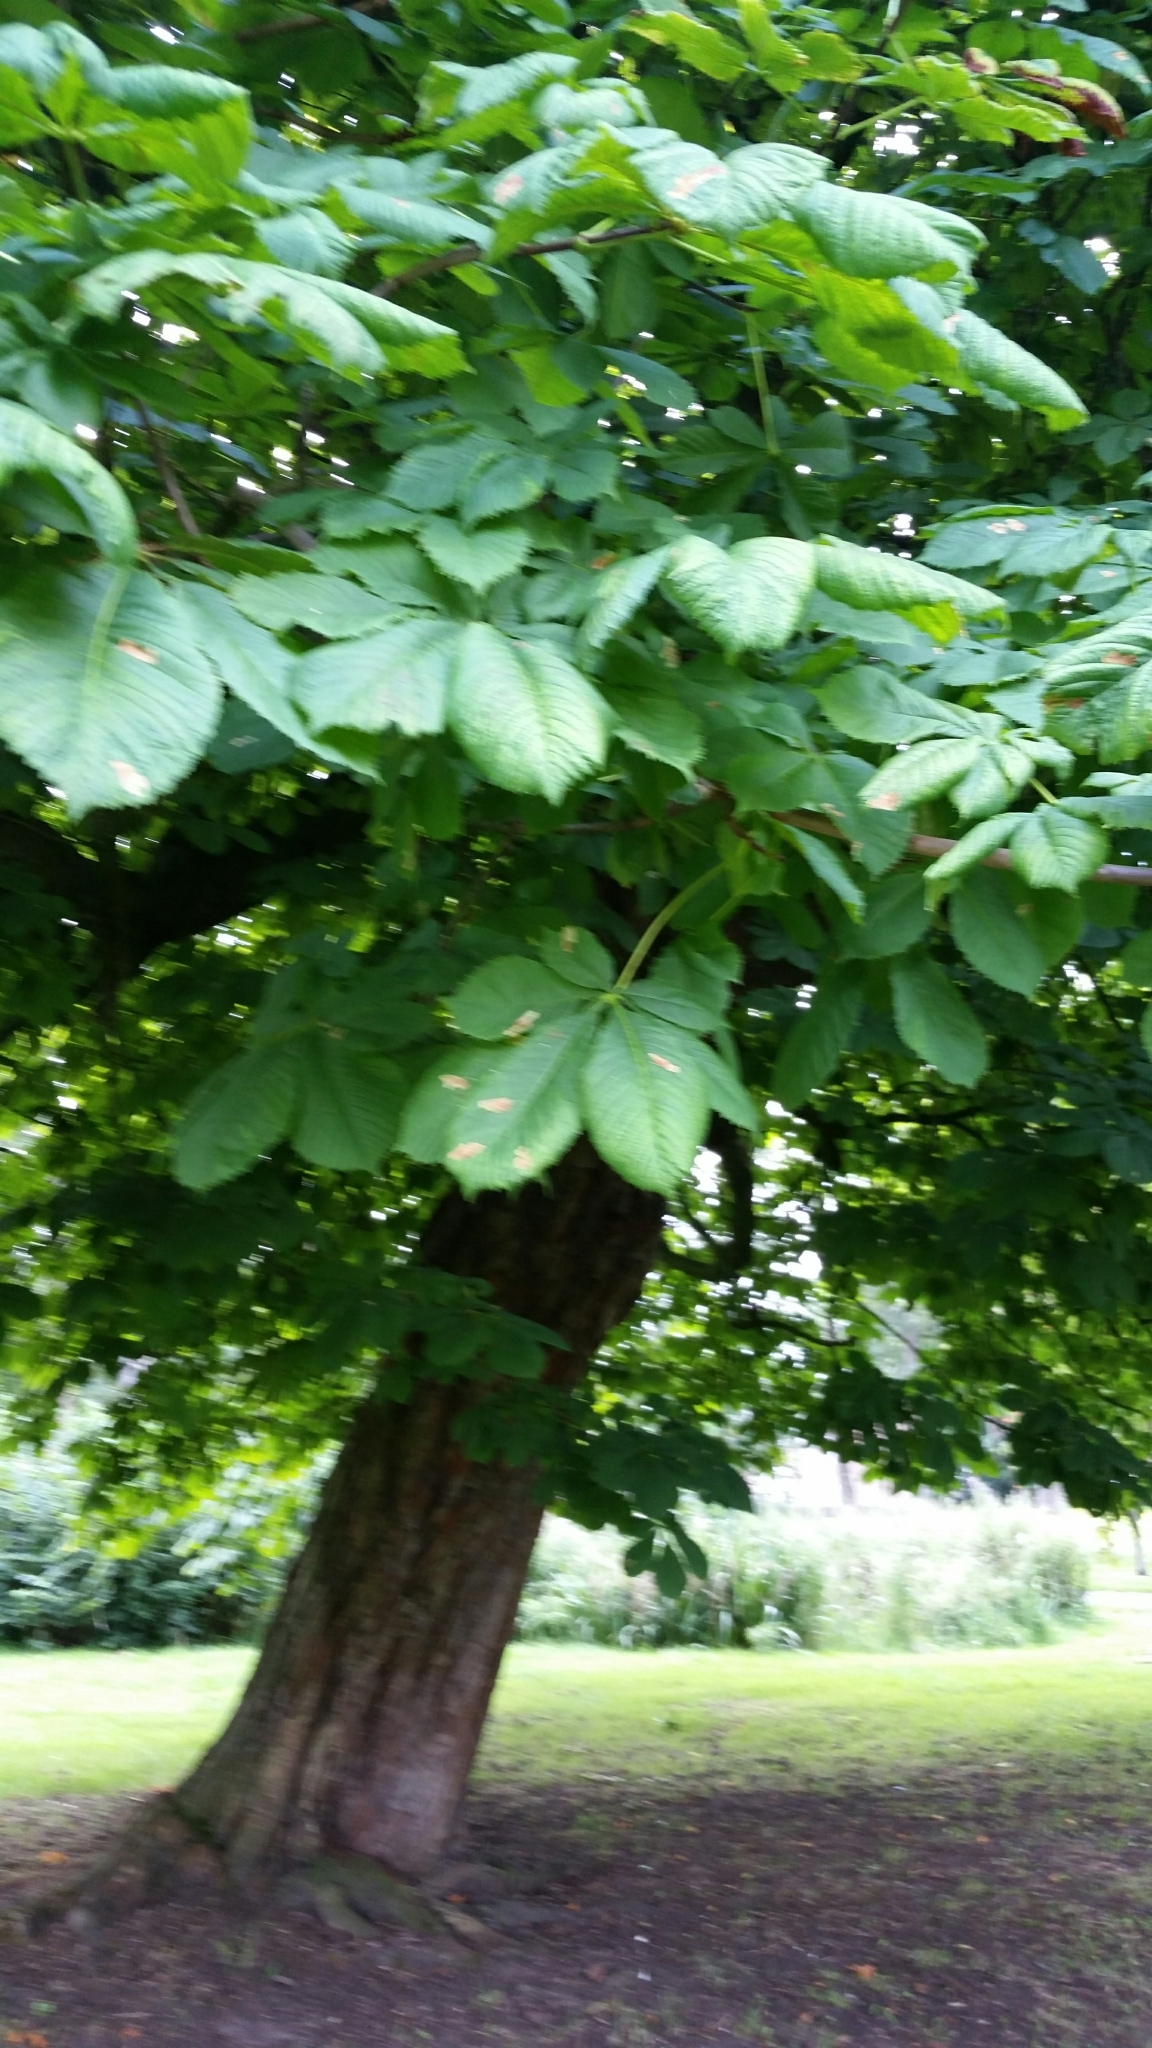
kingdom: Plantae
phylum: Tracheophyta
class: Magnoliopsida
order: Sapindales
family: Sapindaceae
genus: Aesculus
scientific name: Aesculus hippocastanum
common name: Horse-chestnut
